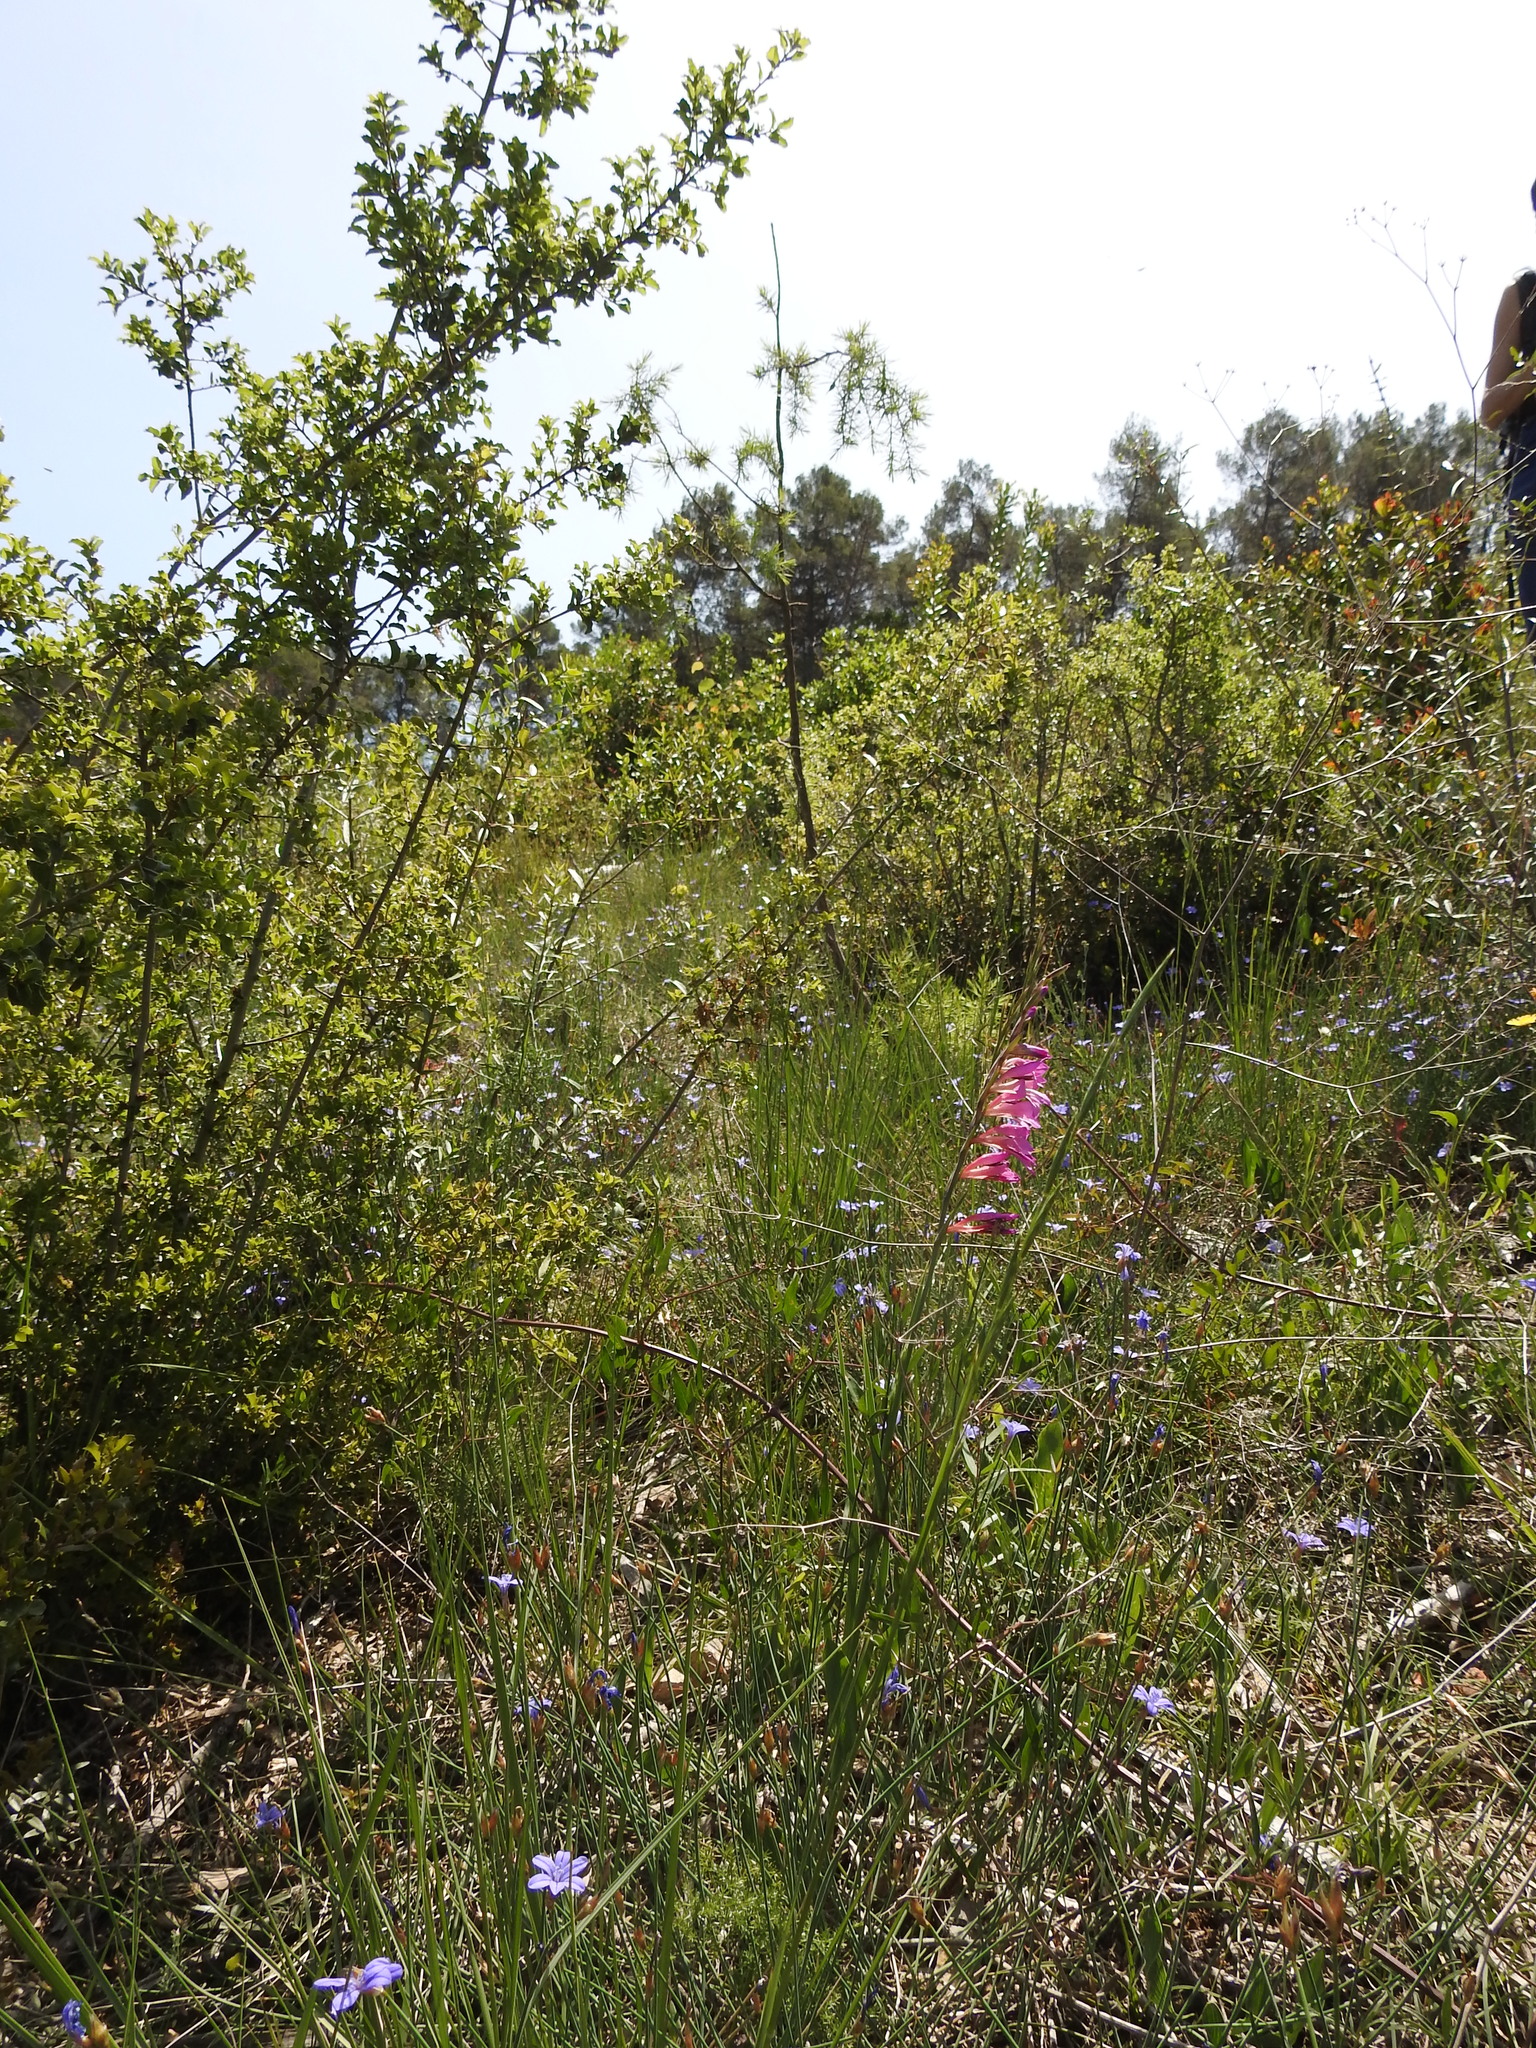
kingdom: Plantae
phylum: Tracheophyta
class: Liliopsida
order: Asparagales
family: Iridaceae
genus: Gladiolus
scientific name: Gladiolus dubius
